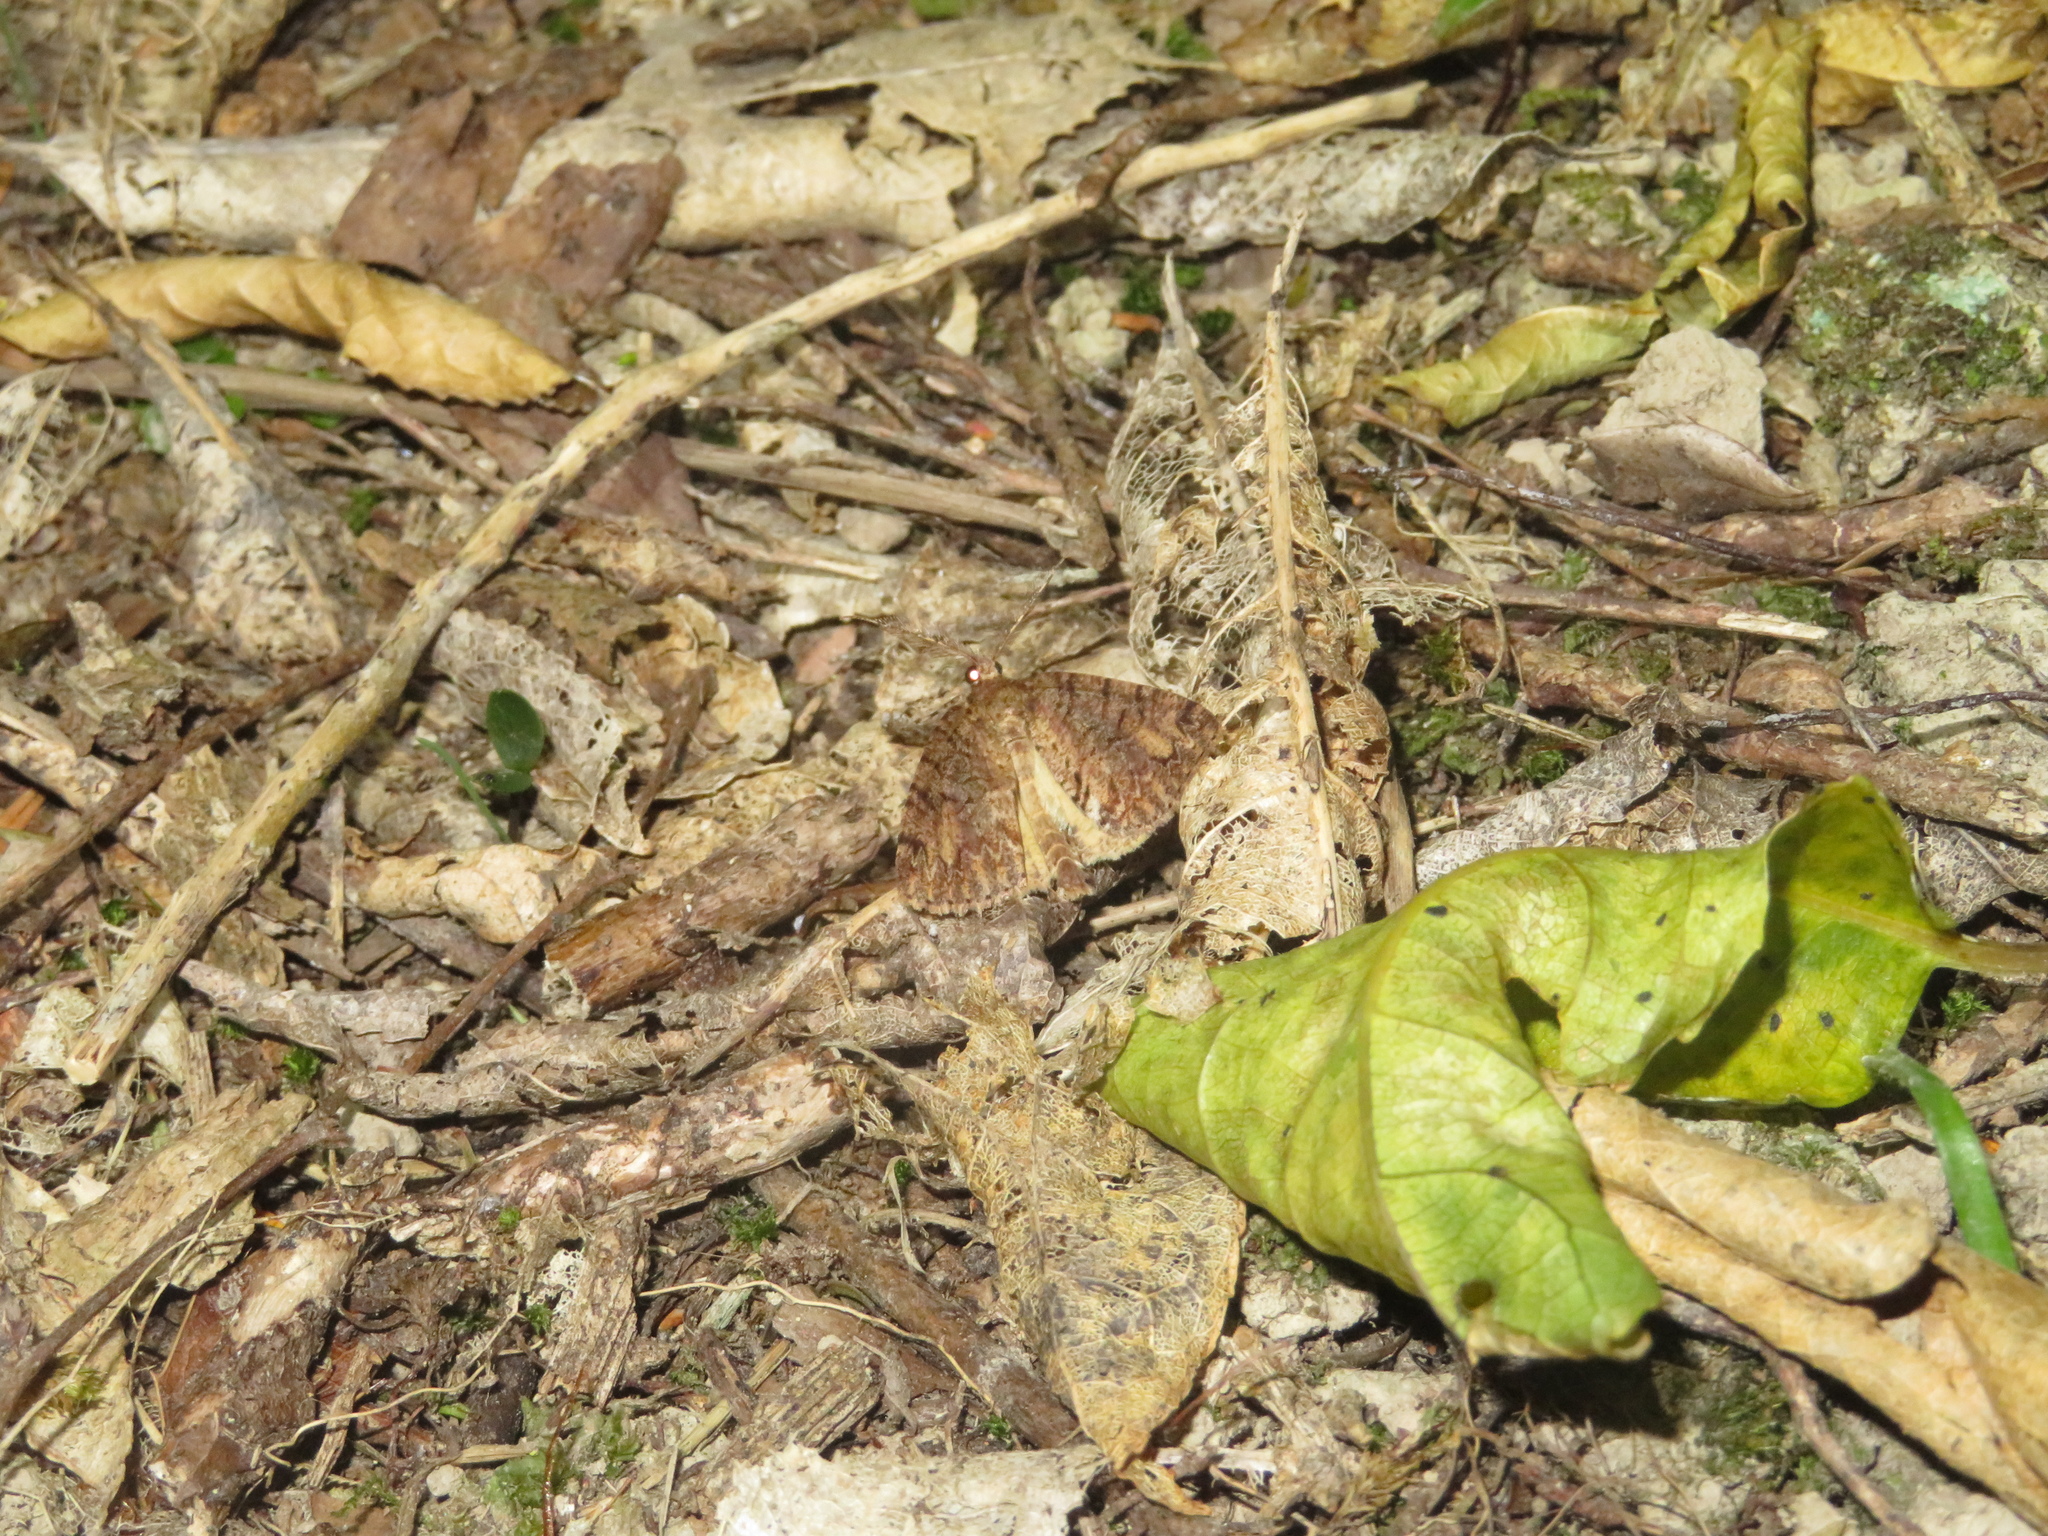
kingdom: Animalia
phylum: Arthropoda
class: Insecta
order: Lepidoptera
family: Geometridae
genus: Pseudocoremia
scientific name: Pseudocoremia suavis
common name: Common forest looper
